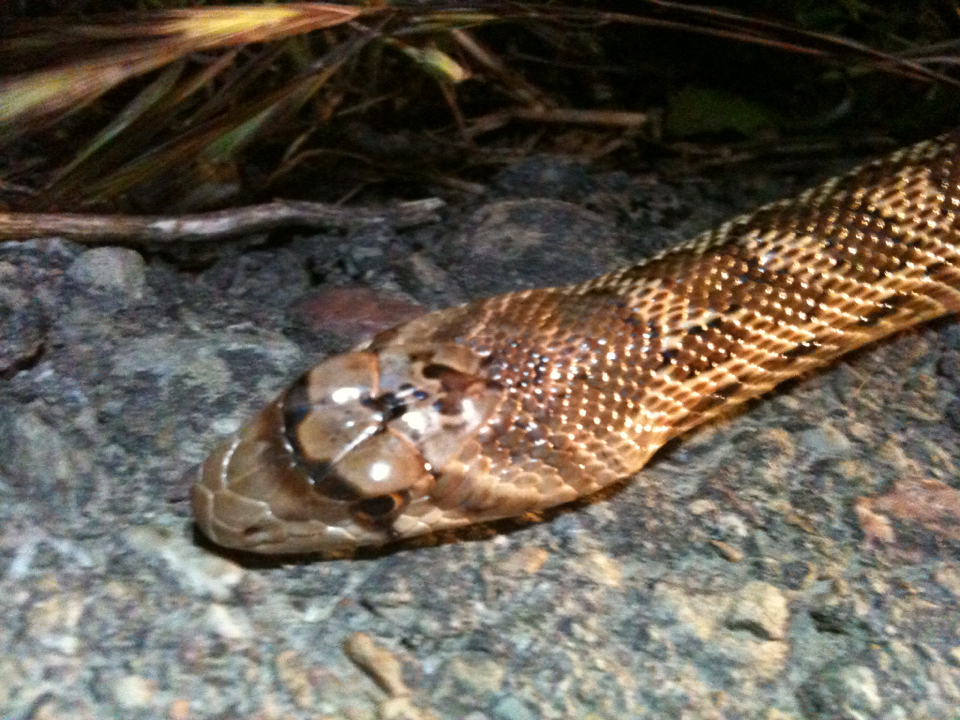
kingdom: Animalia
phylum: Chordata
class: Squamata
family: Colubridae
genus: Pituophis
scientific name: Pituophis catenifer
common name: Gopher snake
